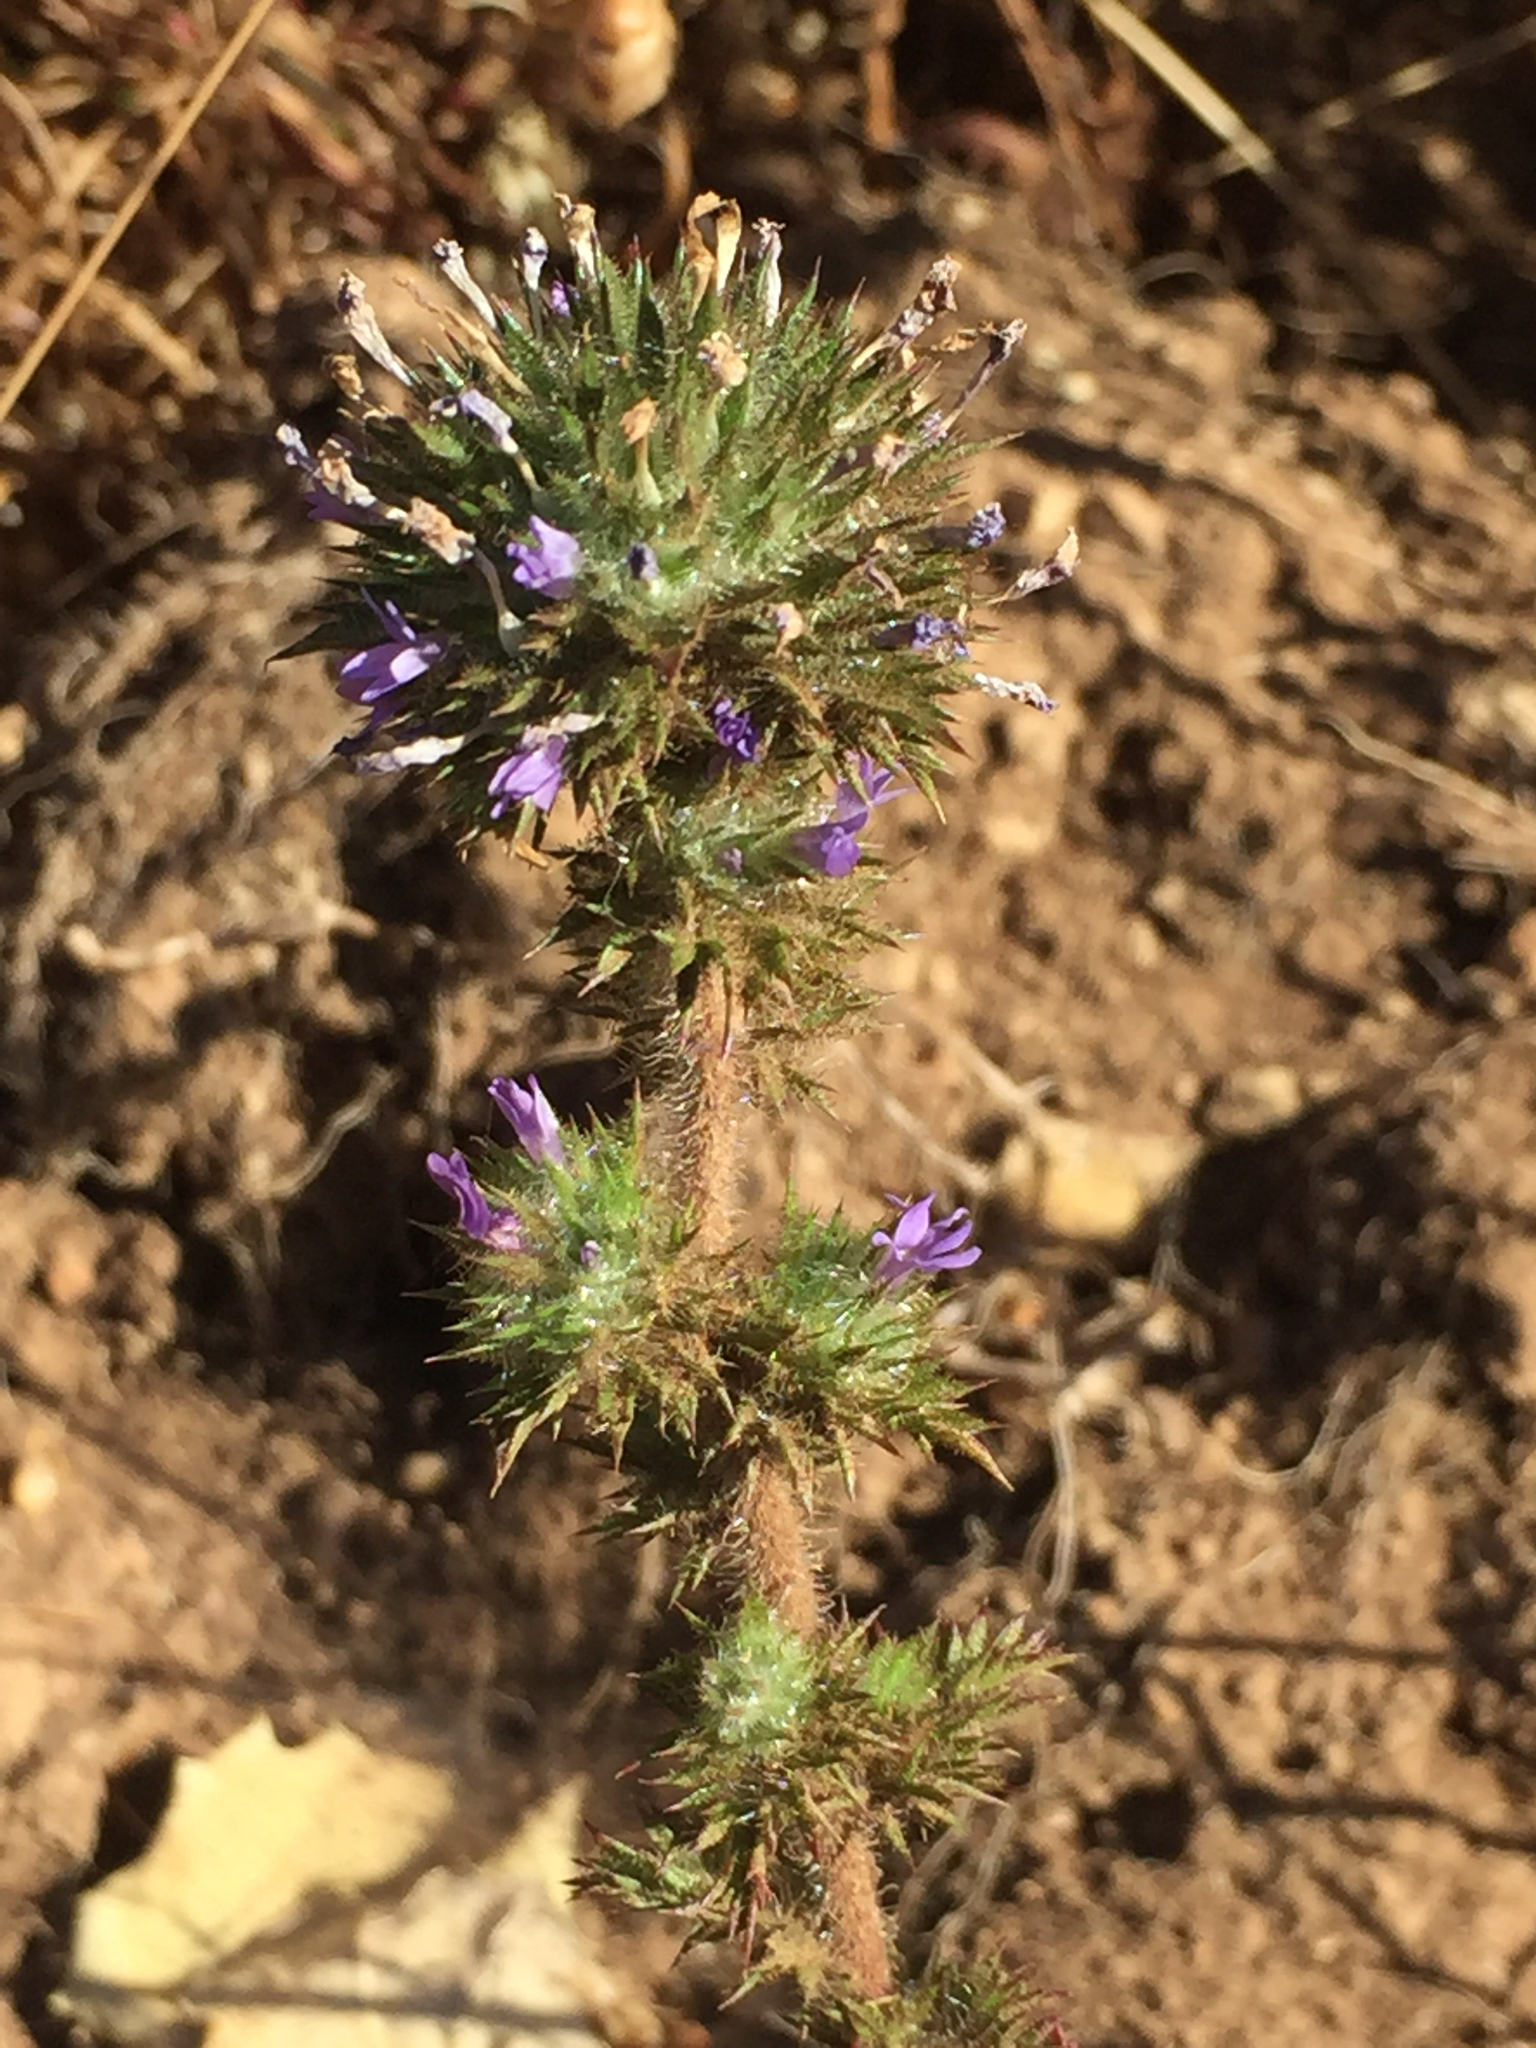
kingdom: Plantae
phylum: Tracheophyta
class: Magnoliopsida
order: Ericales
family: Polemoniaceae
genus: Navarretia
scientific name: Navarretia squarrosa
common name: Skunkweed
